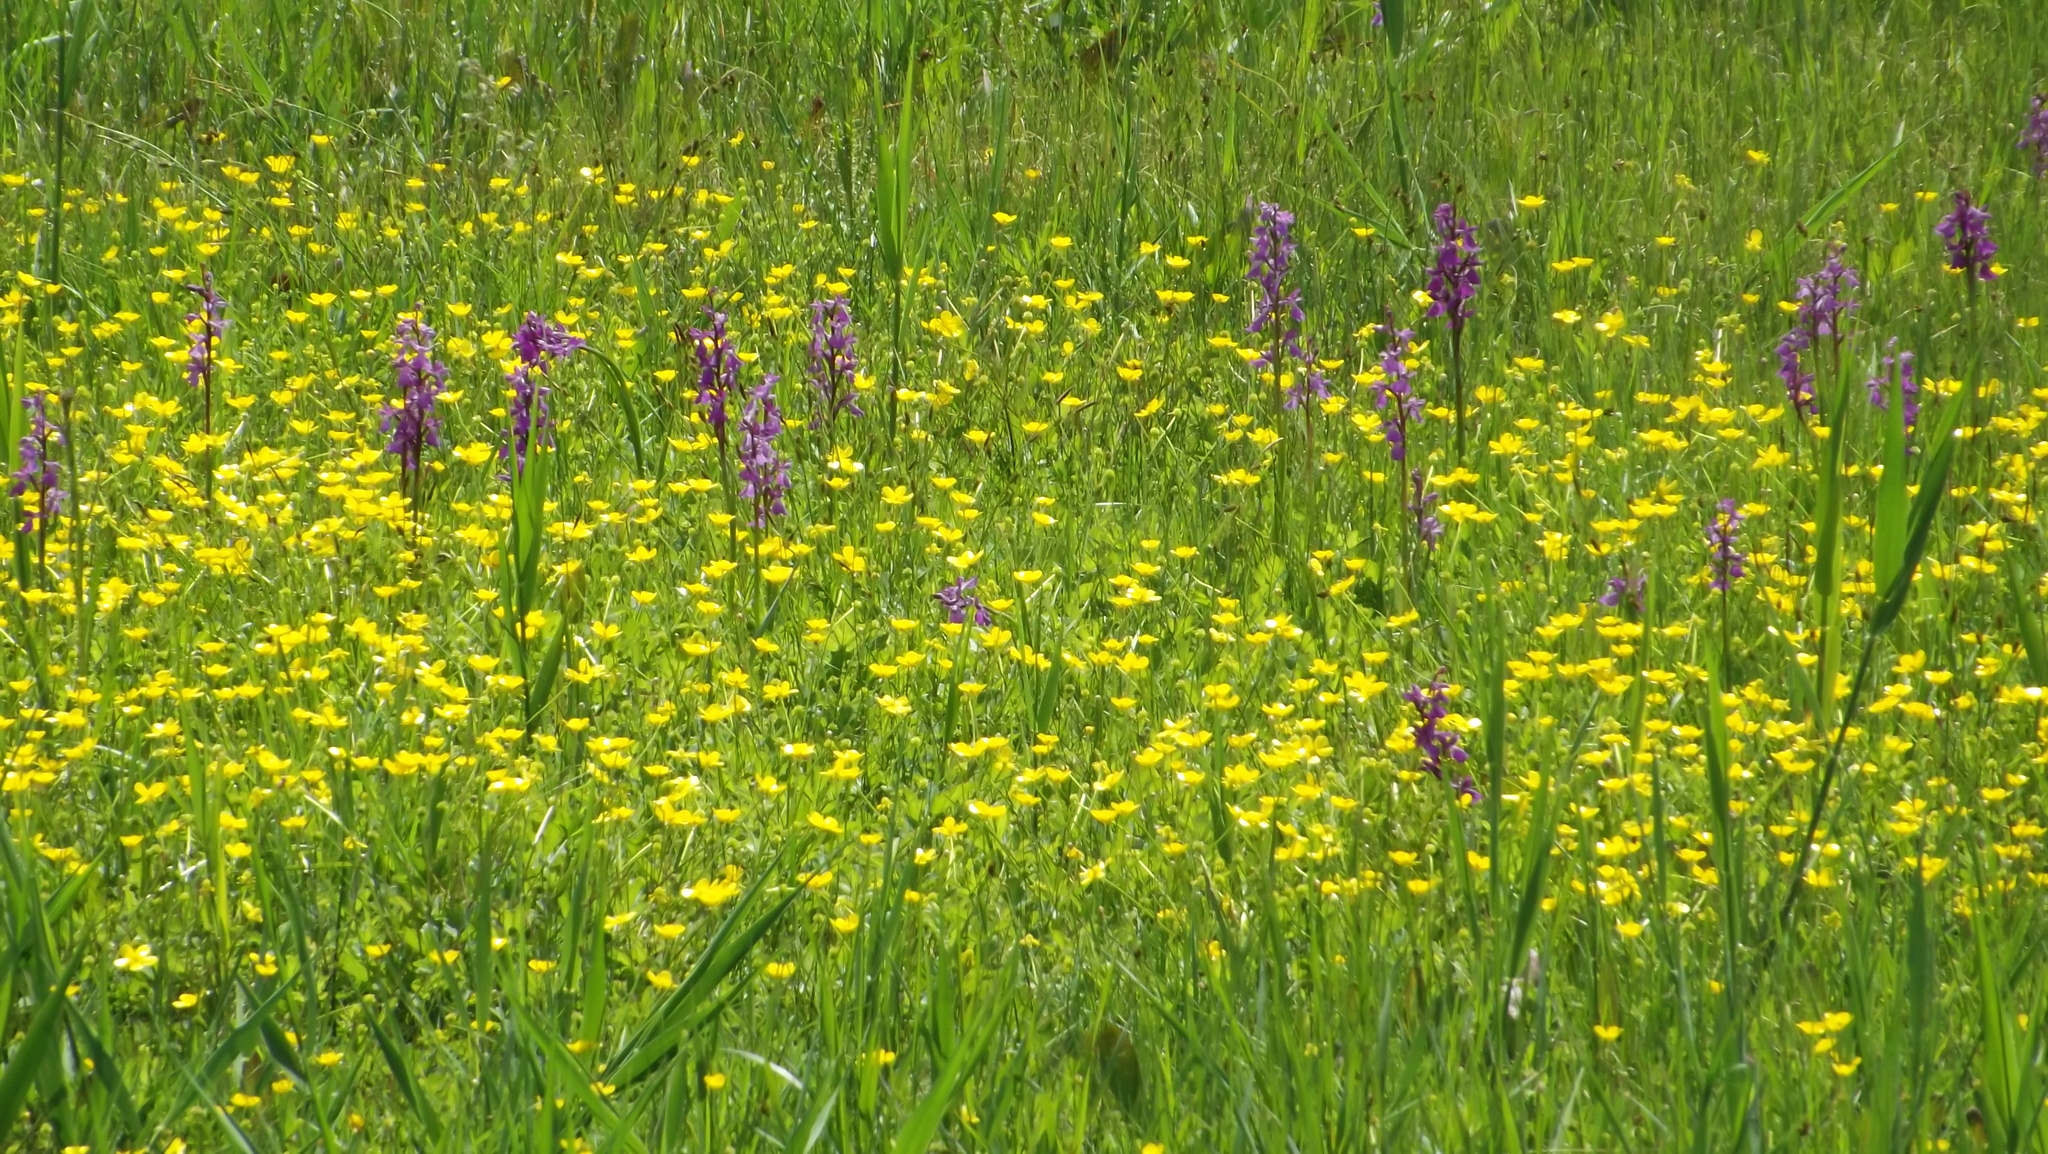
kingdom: Plantae
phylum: Tracheophyta
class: Liliopsida
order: Asparagales
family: Orchidaceae
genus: Anacamptis
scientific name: Anacamptis palustris
